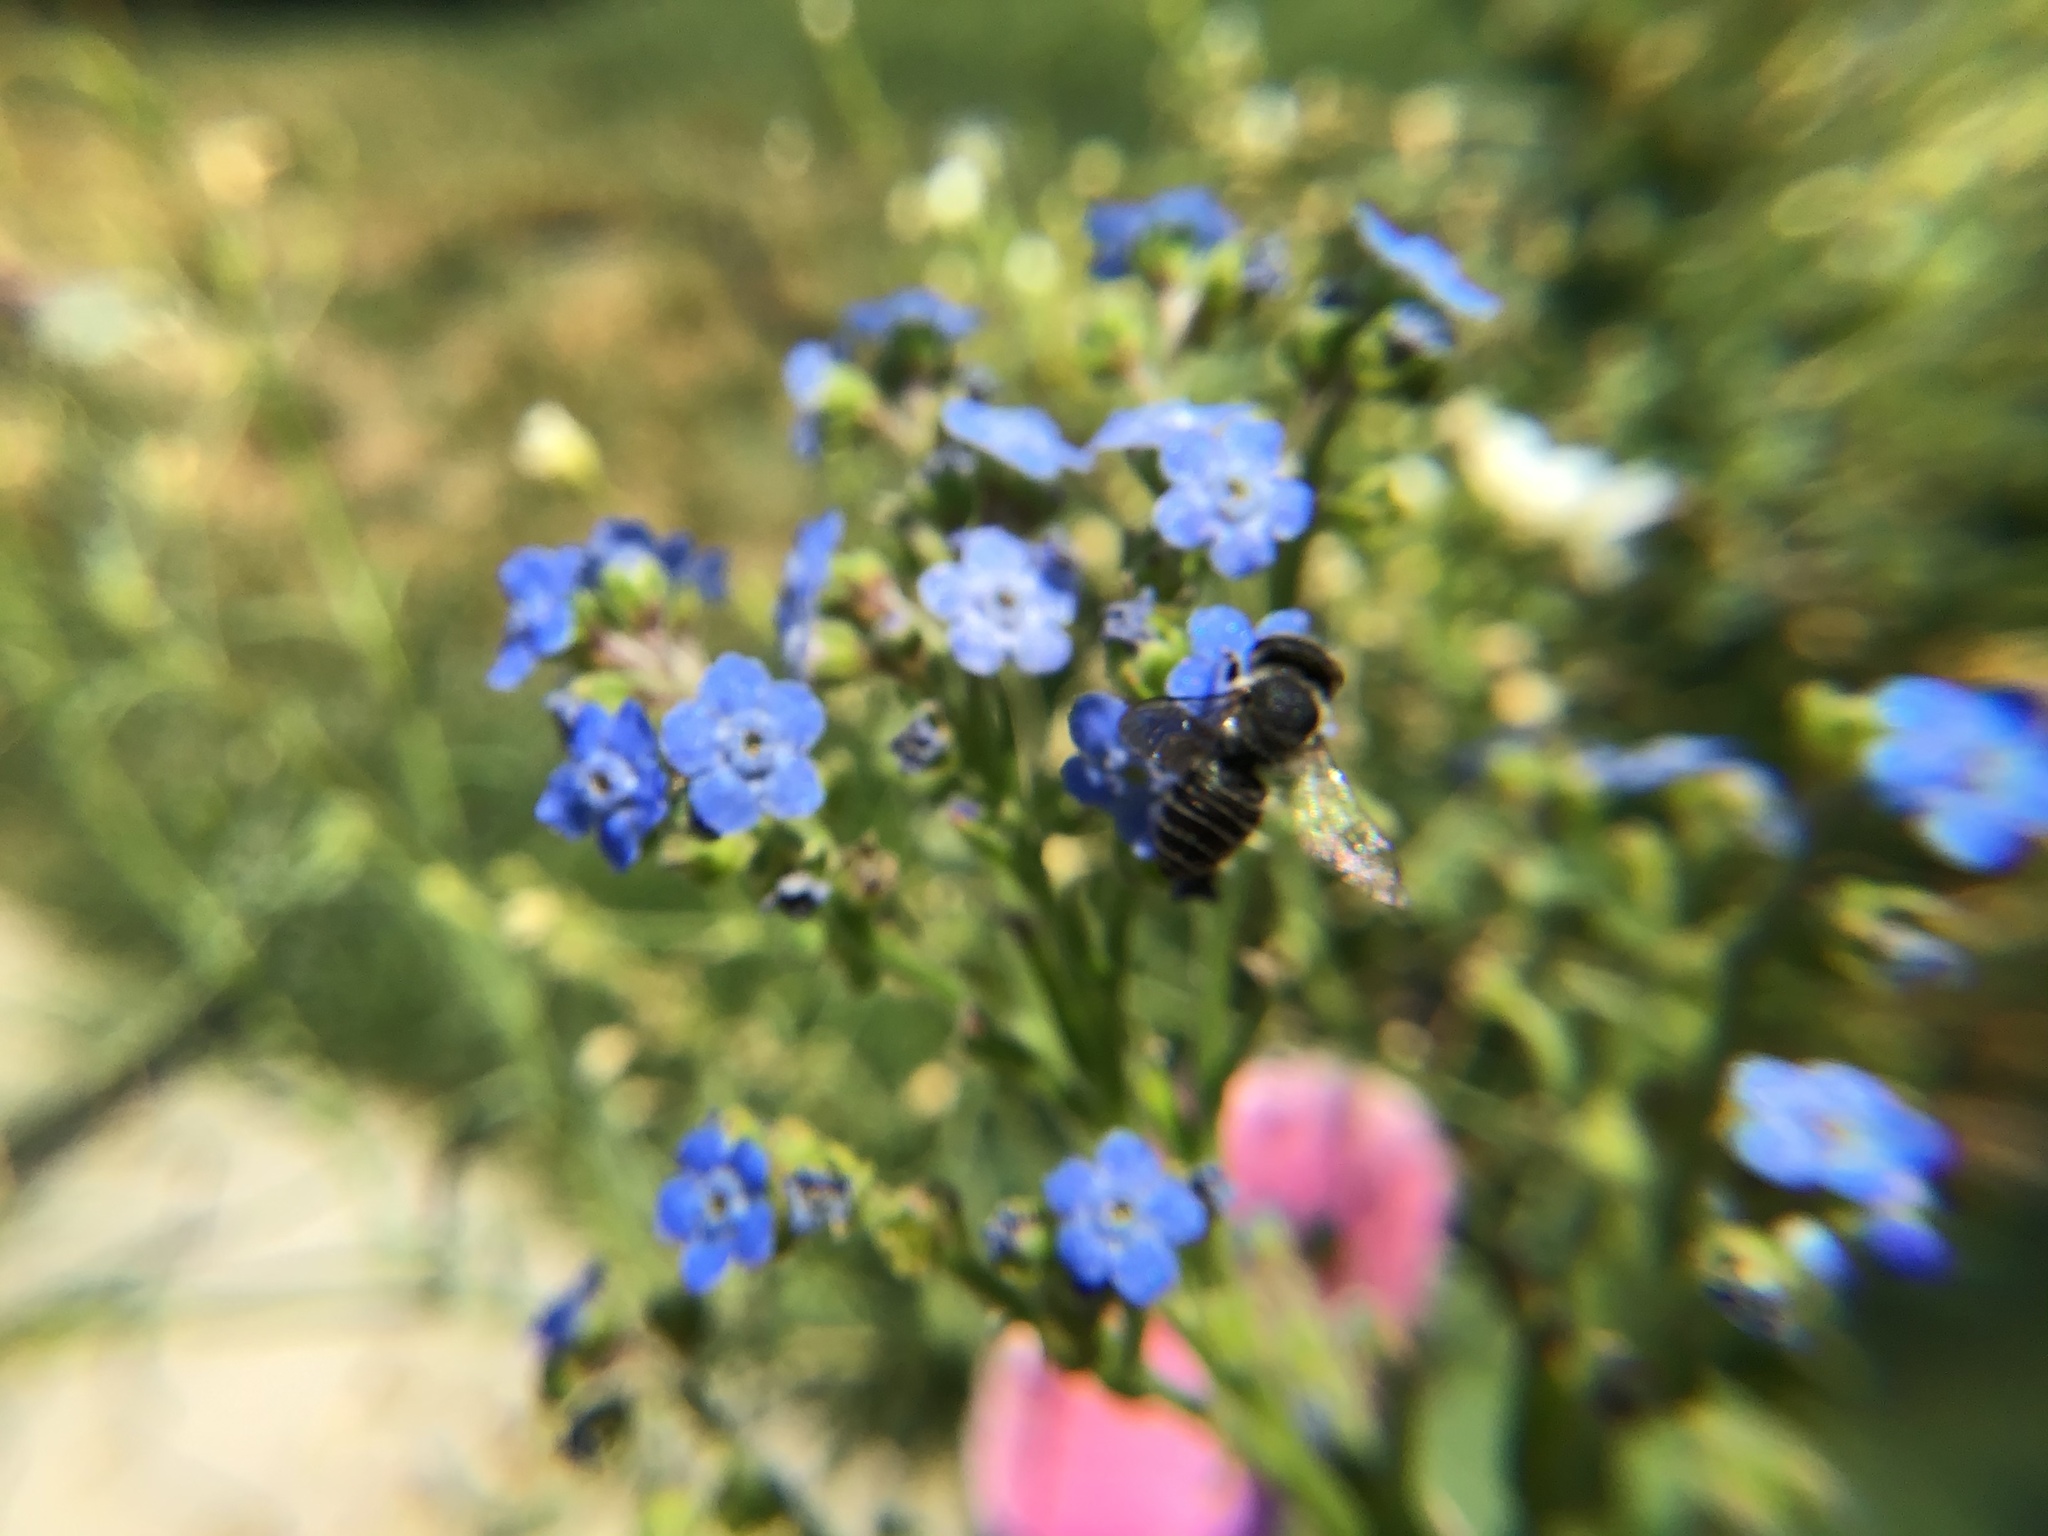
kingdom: Animalia
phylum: Arthropoda
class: Insecta
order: Hymenoptera
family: Megachilidae
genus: Megachile
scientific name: Megachile rotundata
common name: Alfalfa leafcutting bee
